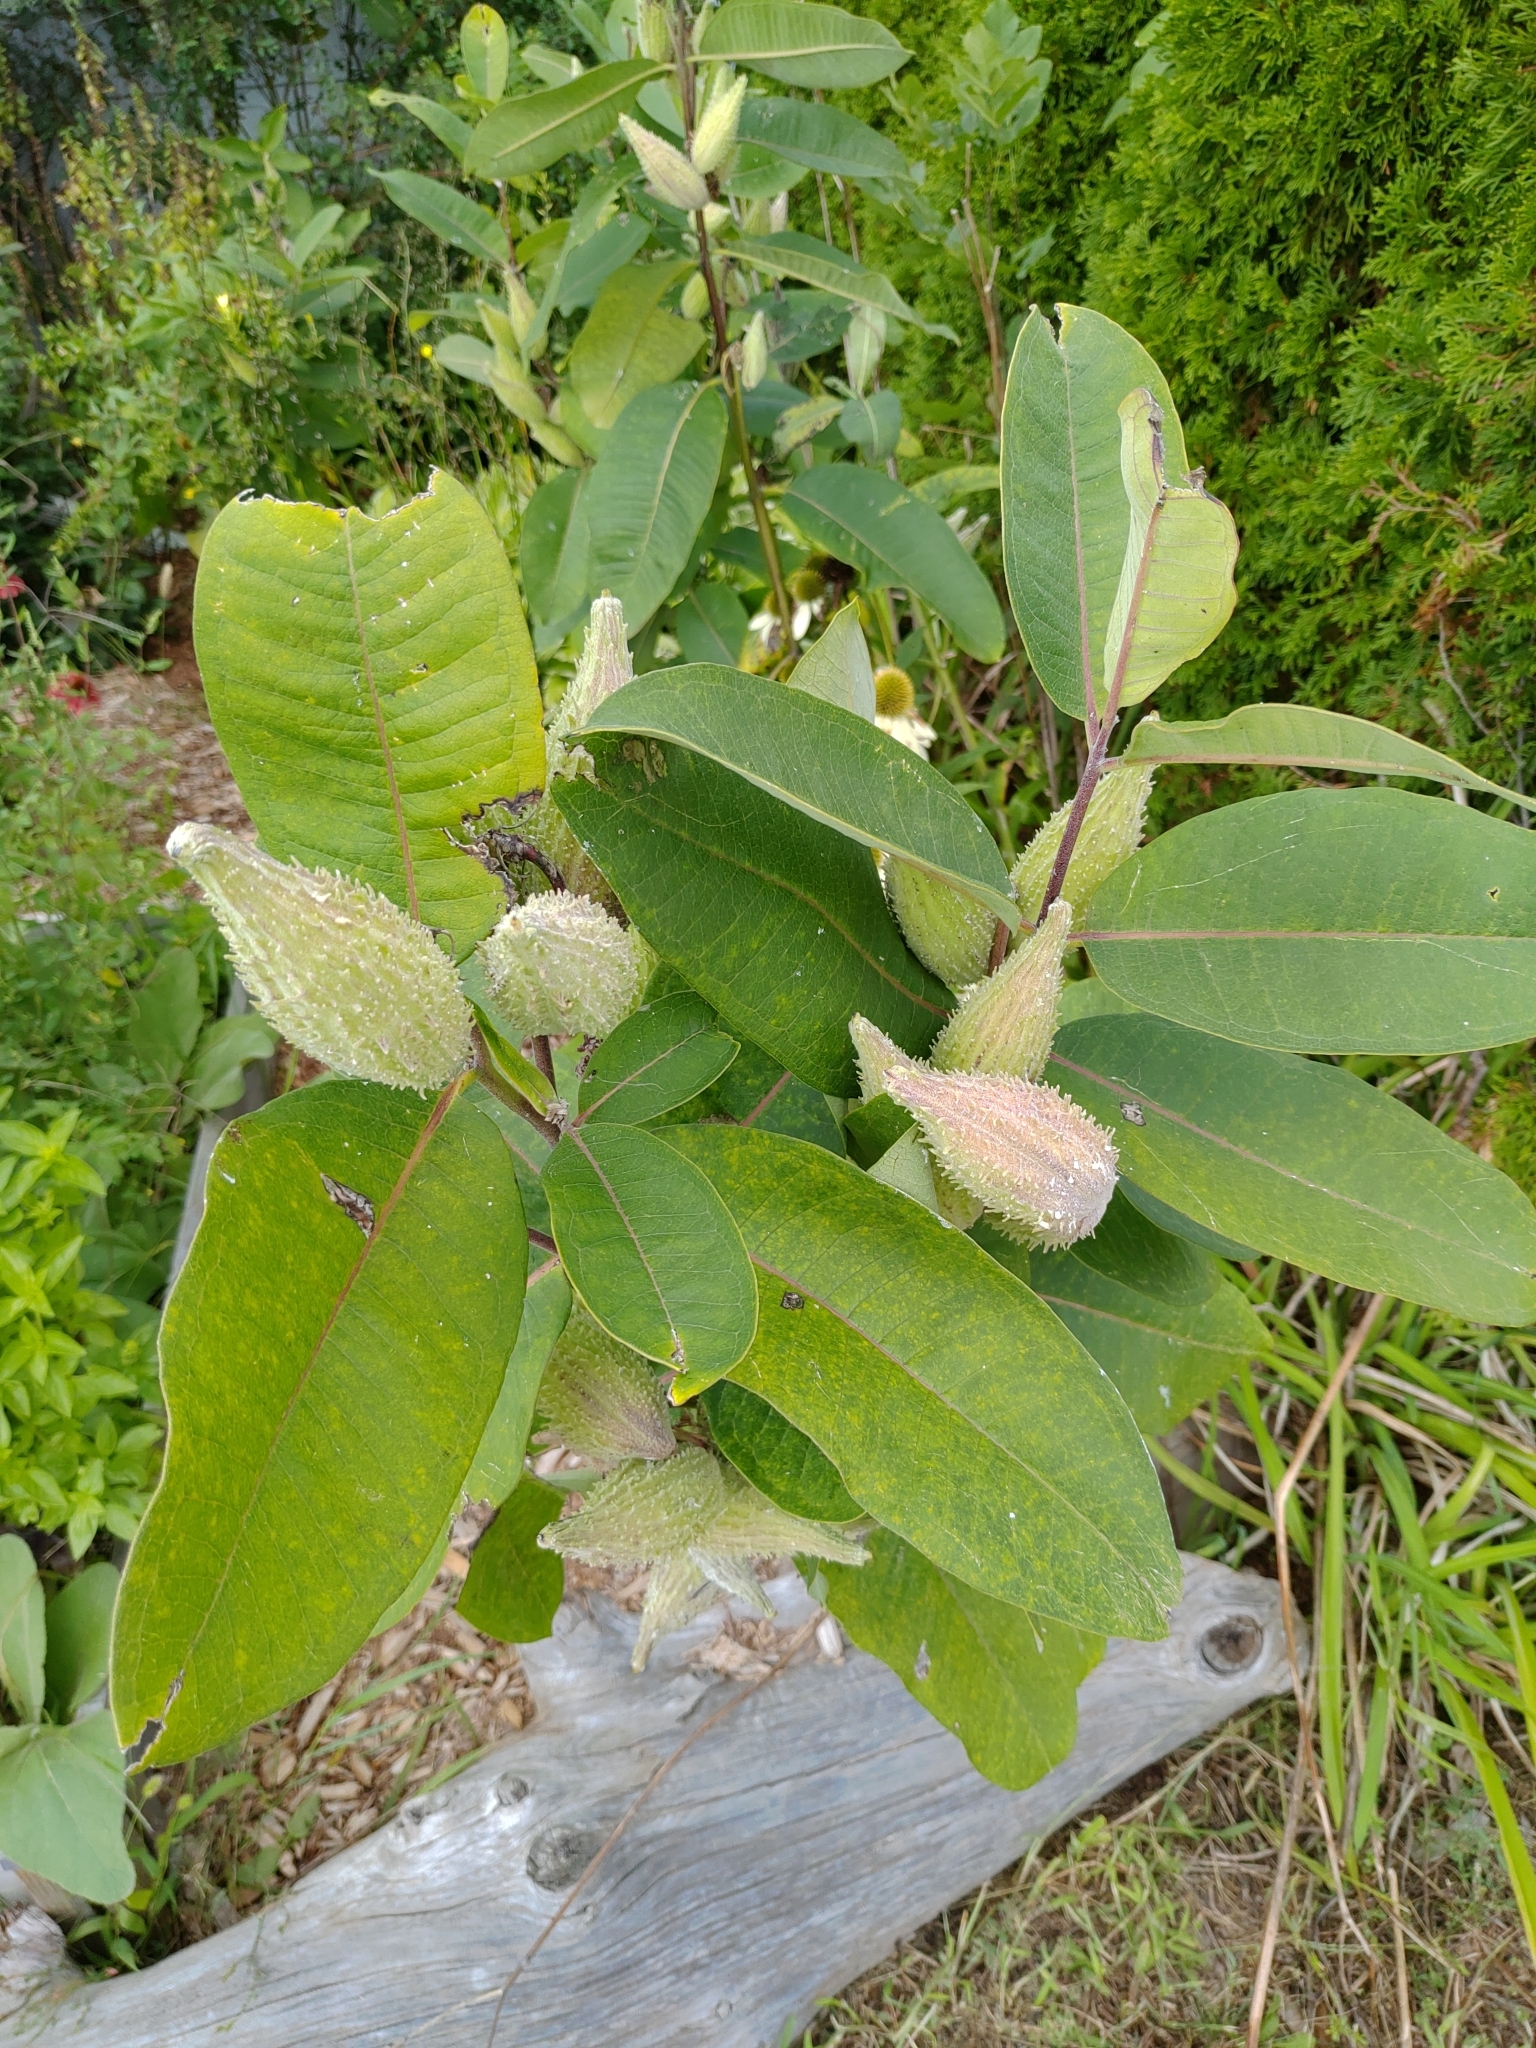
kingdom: Plantae
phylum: Tracheophyta
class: Magnoliopsida
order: Gentianales
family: Apocynaceae
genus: Asclepias
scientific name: Asclepias syriaca
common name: Common milkweed
